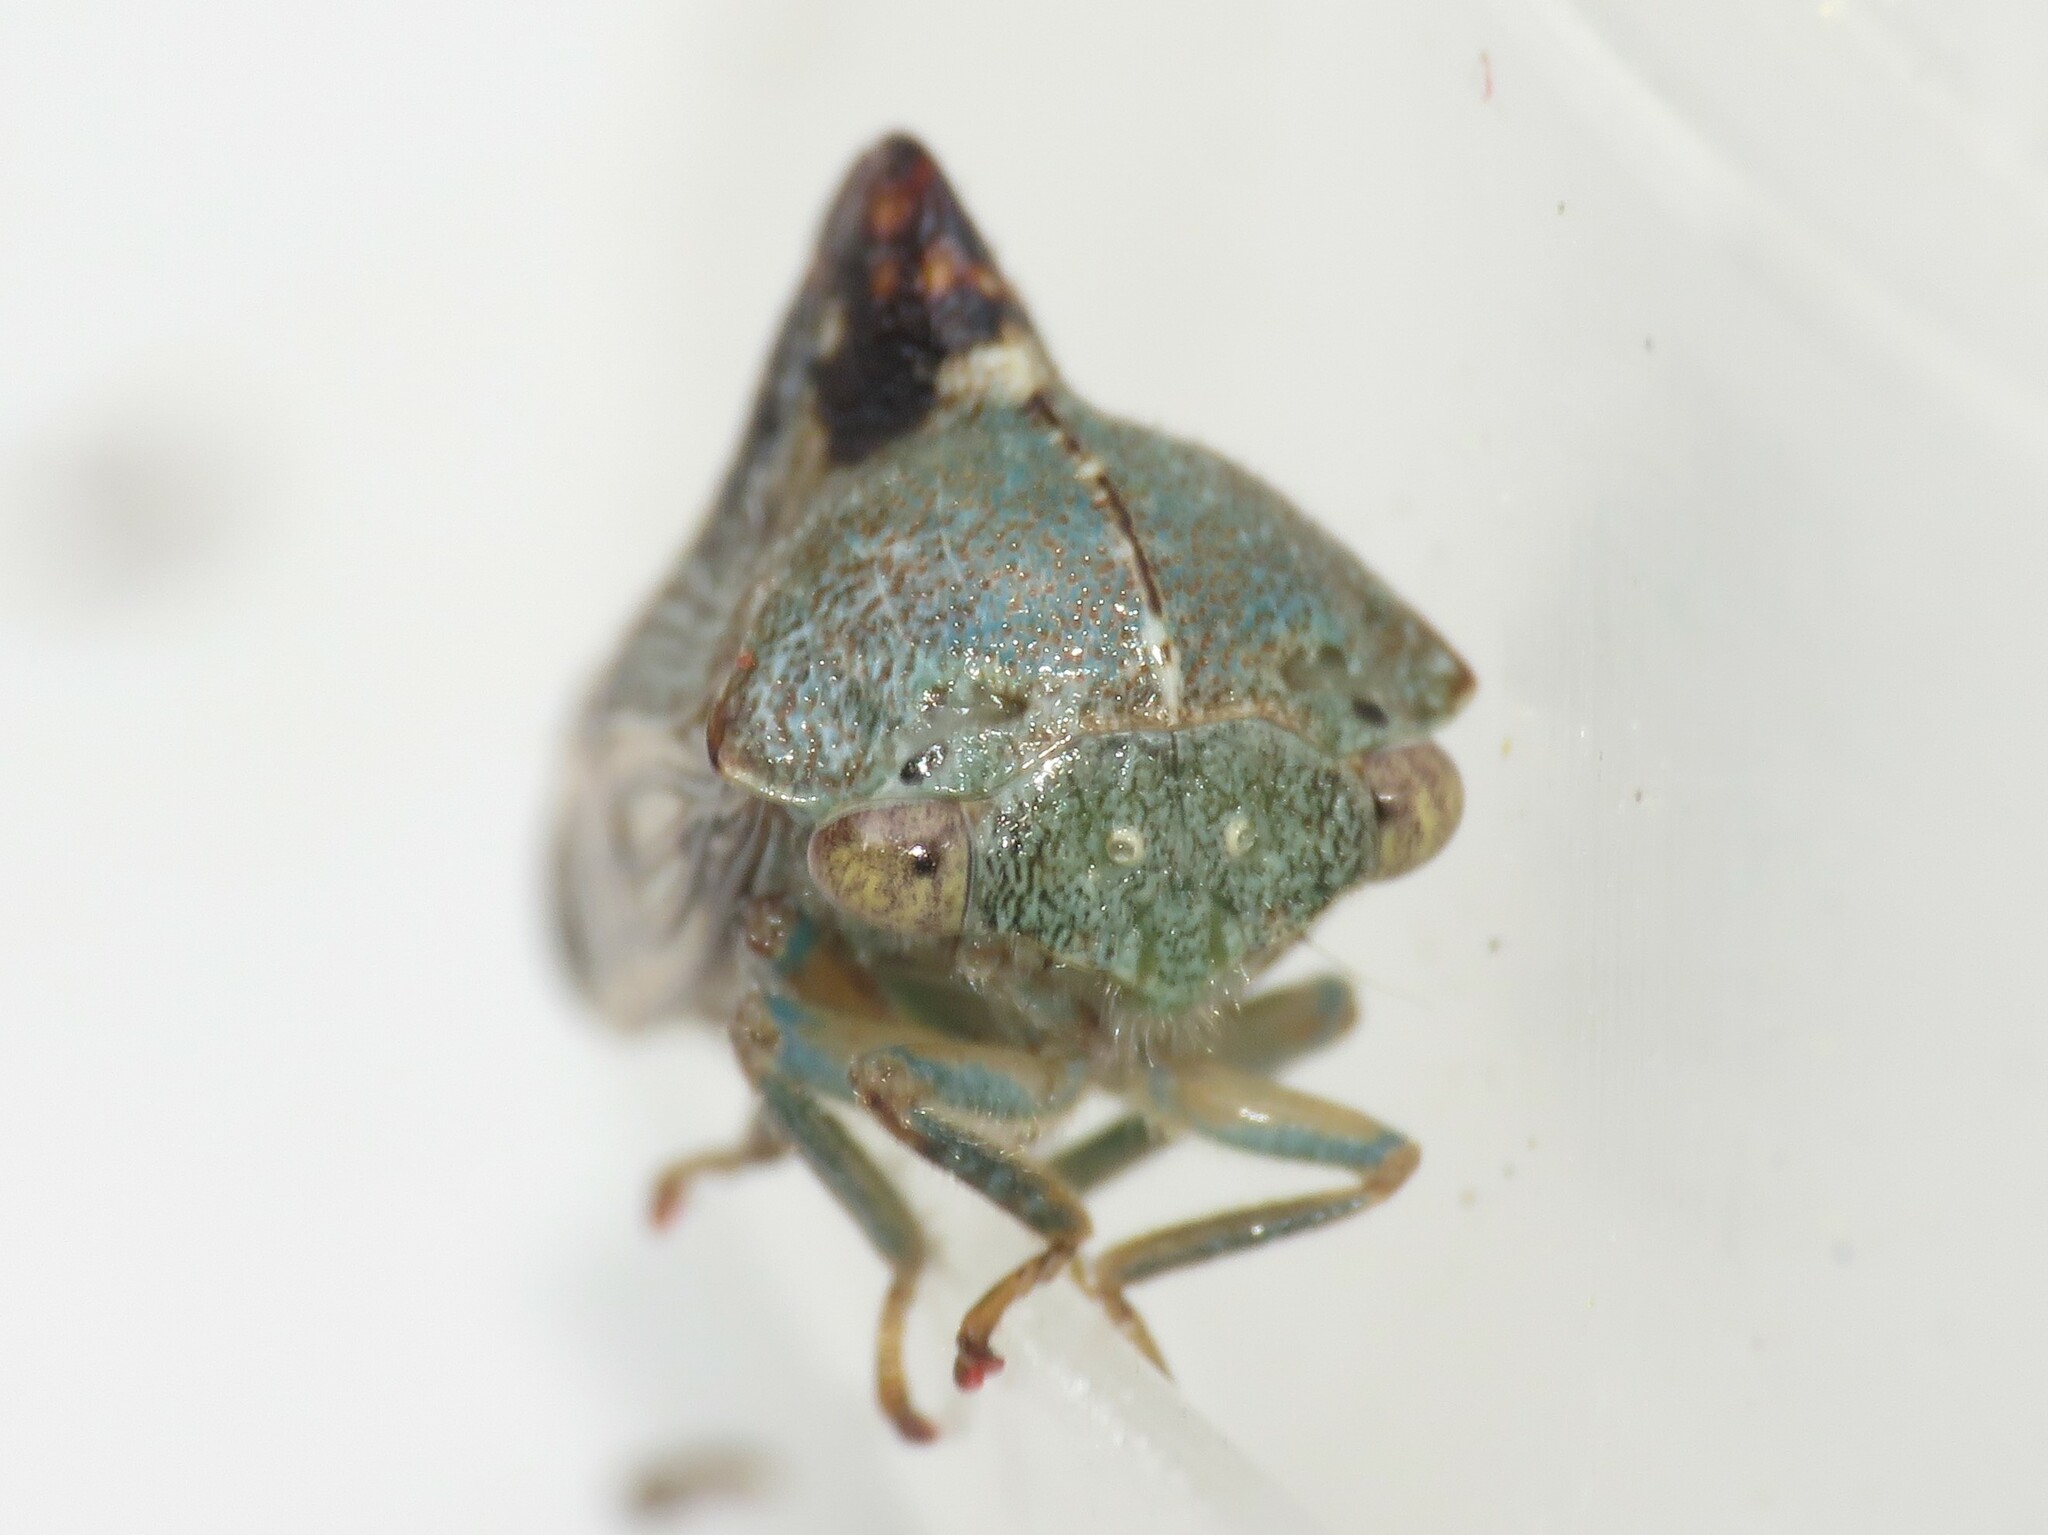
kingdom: Animalia
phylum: Arthropoda
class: Insecta
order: Hemiptera
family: Membracidae
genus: Telamona
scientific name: Telamona decorata
